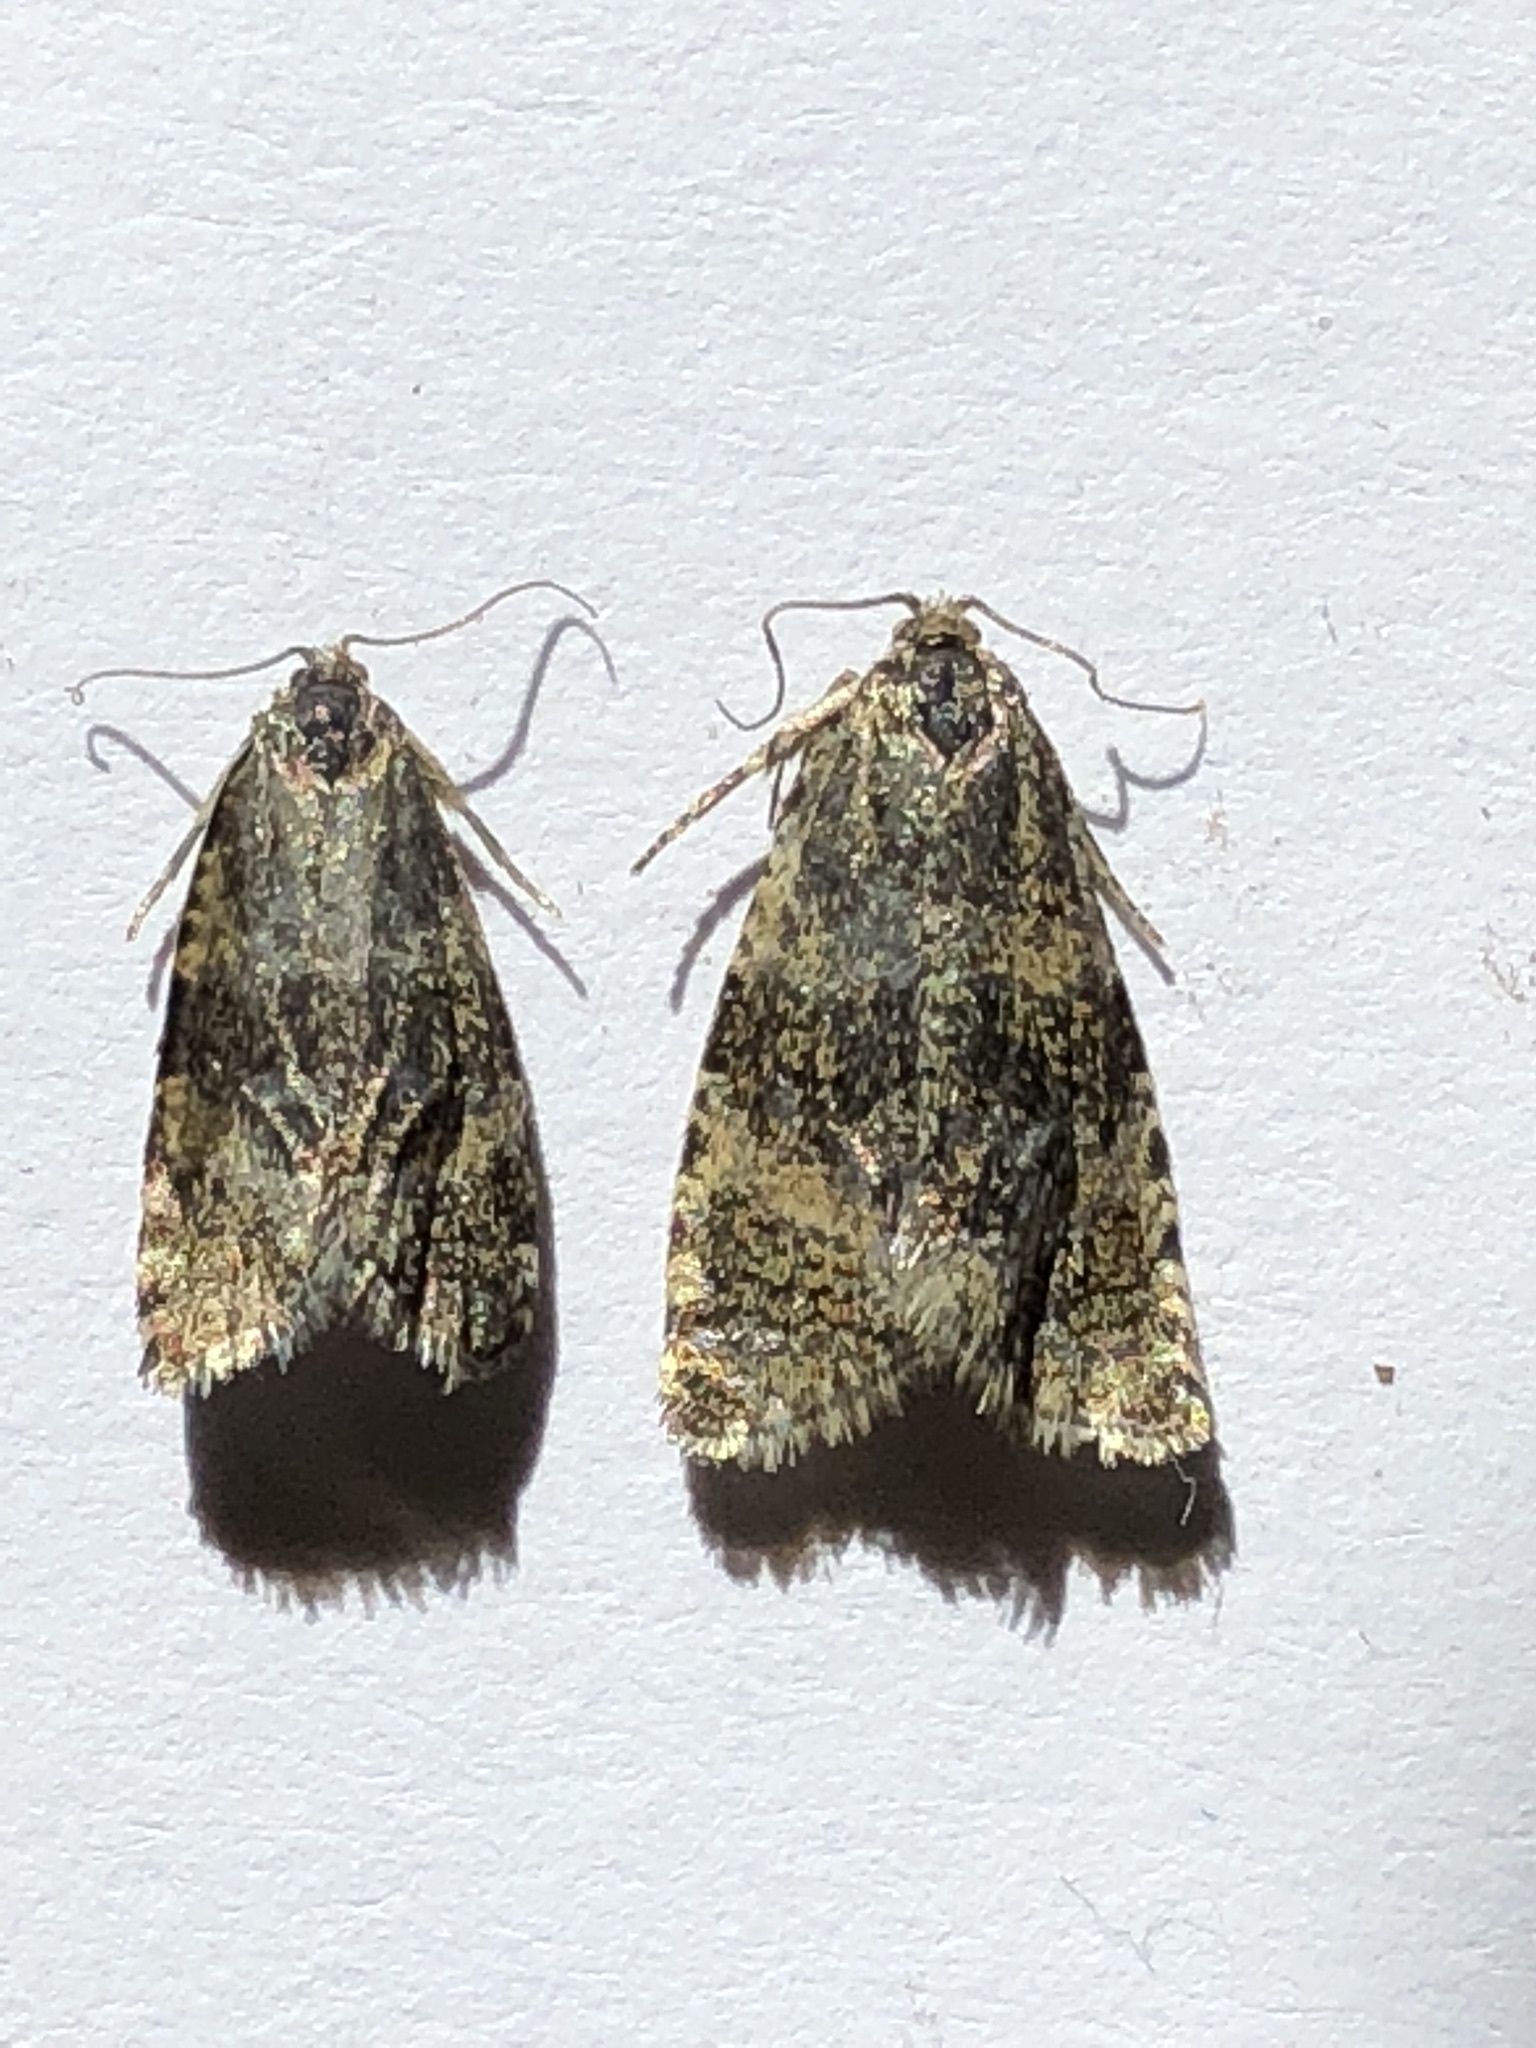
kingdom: Animalia
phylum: Arthropoda
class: Insecta
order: Lepidoptera
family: Tortricidae
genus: Olethreutes
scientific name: Olethreutes metallicana
